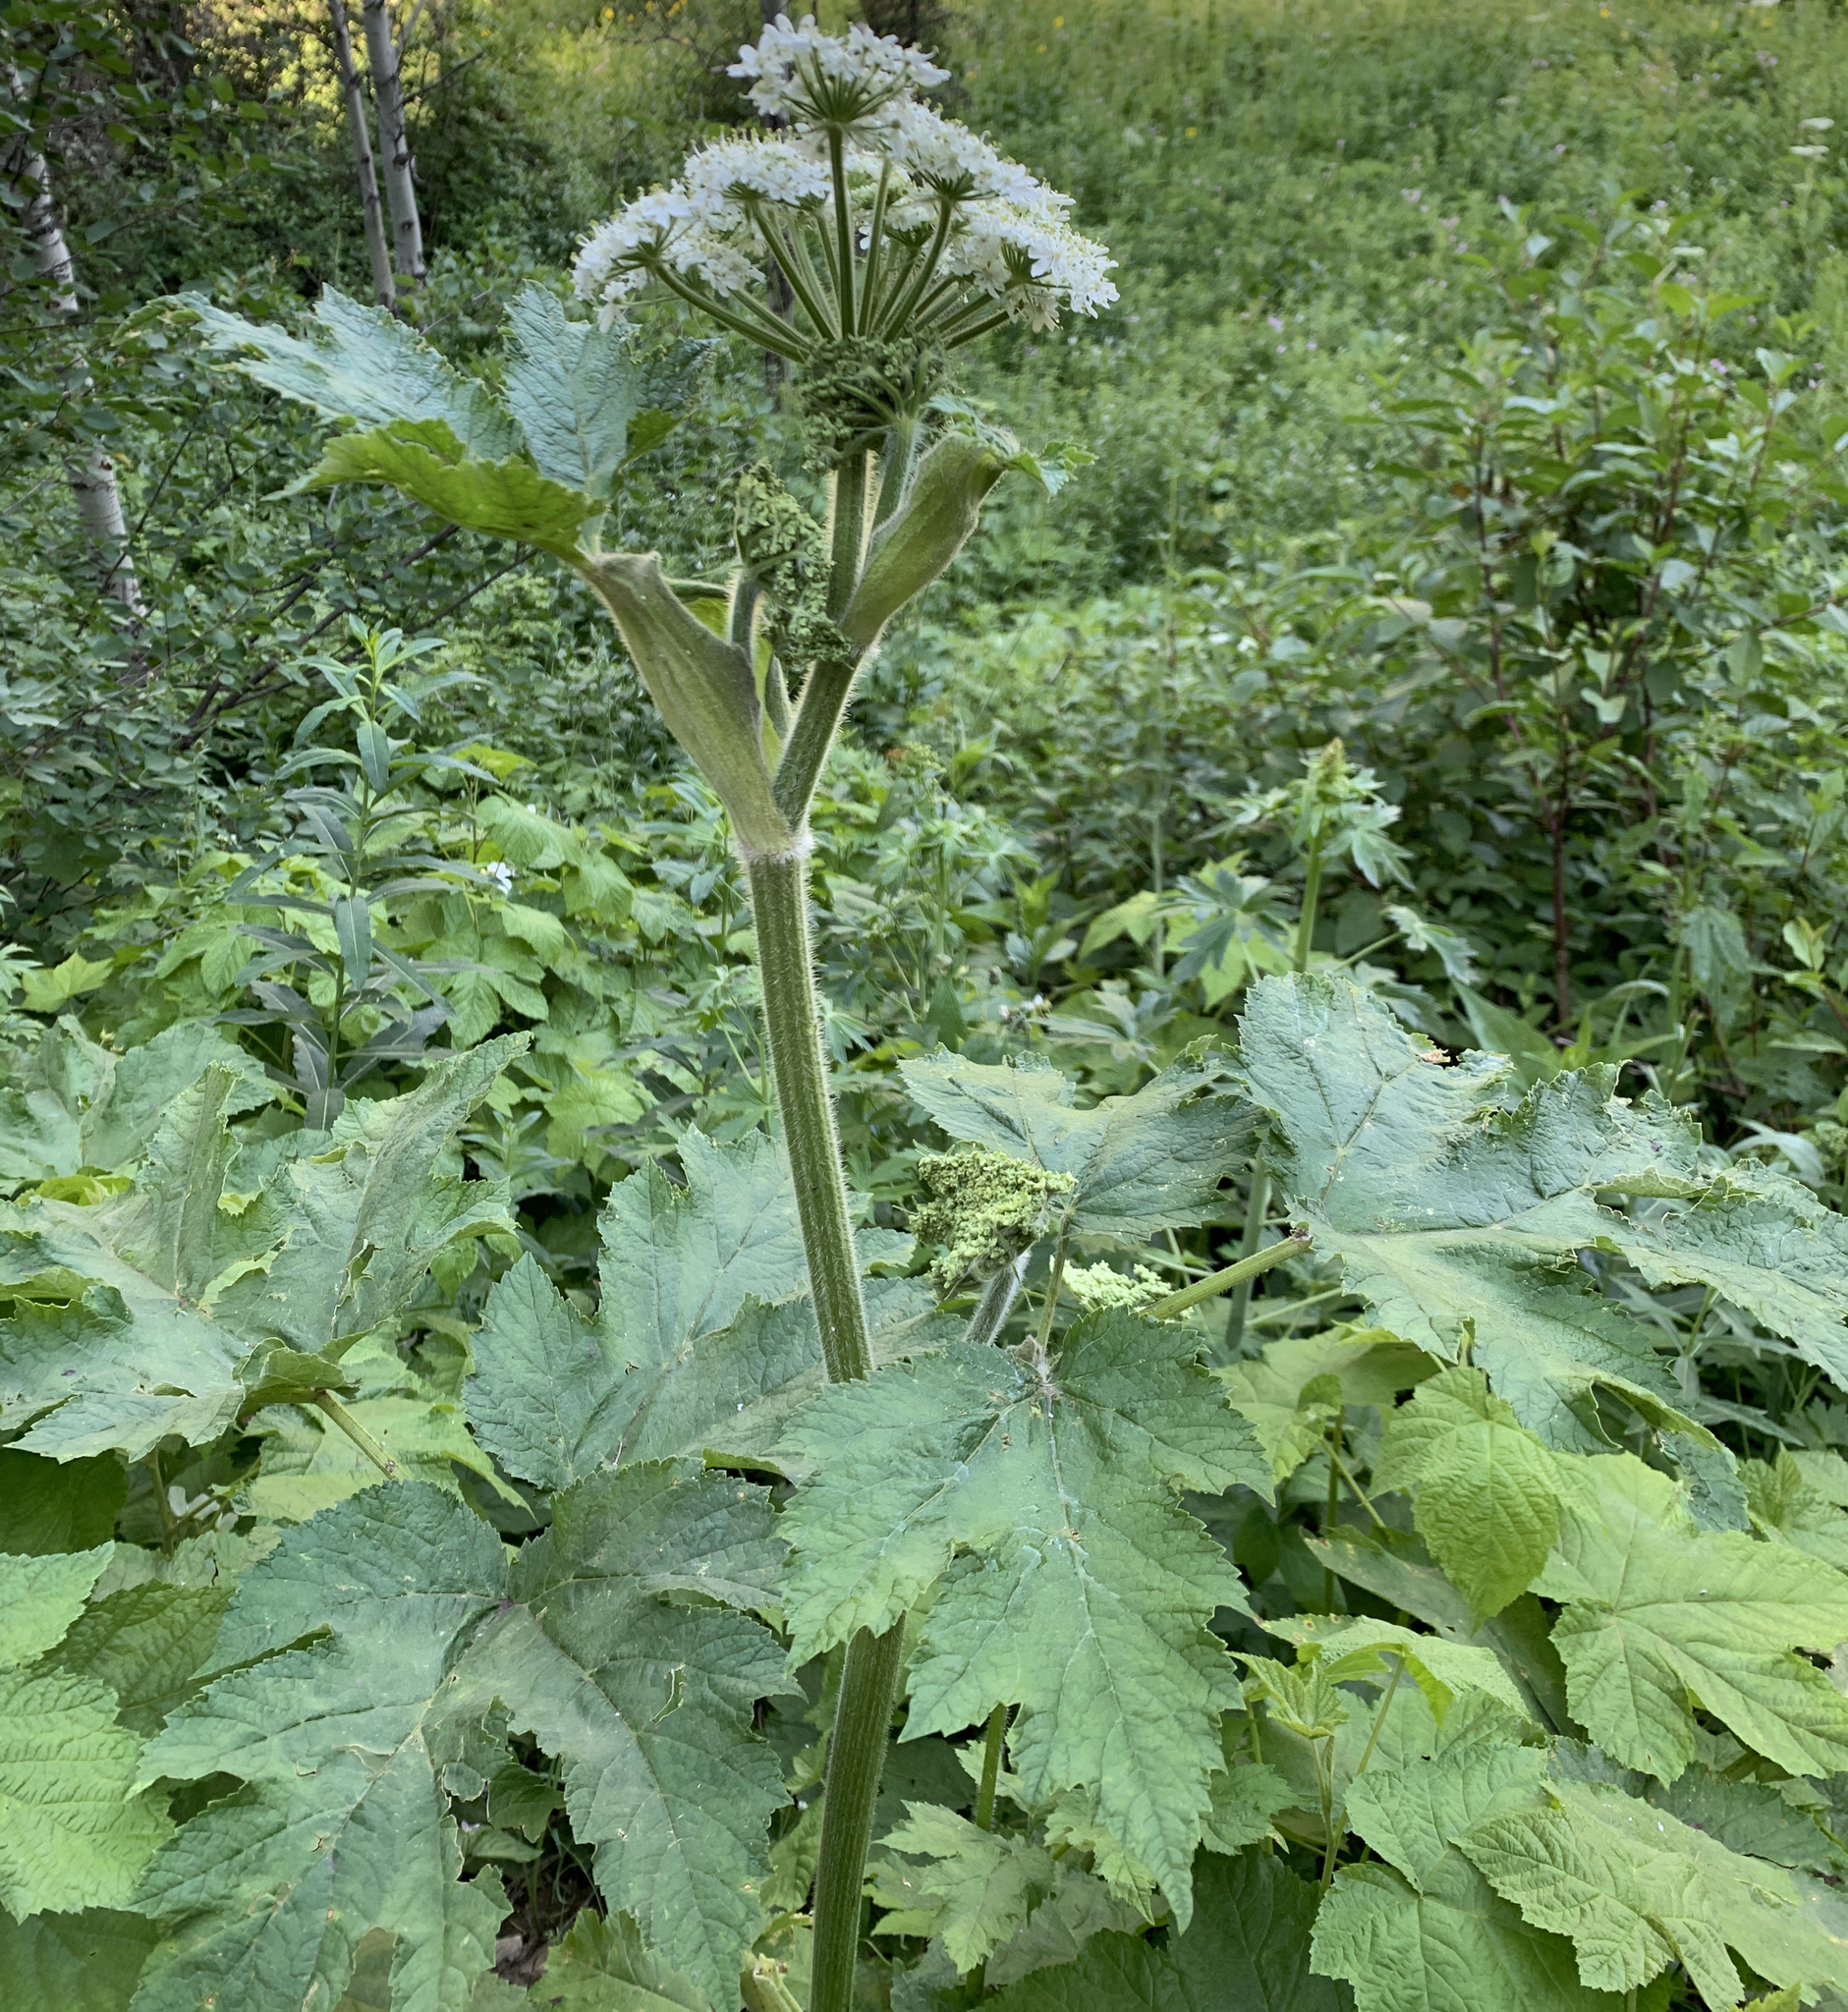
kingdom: Plantae
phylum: Tracheophyta
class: Magnoliopsida
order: Apiales
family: Apiaceae
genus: Heracleum
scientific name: Heracleum maximum
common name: American cow parsnip
